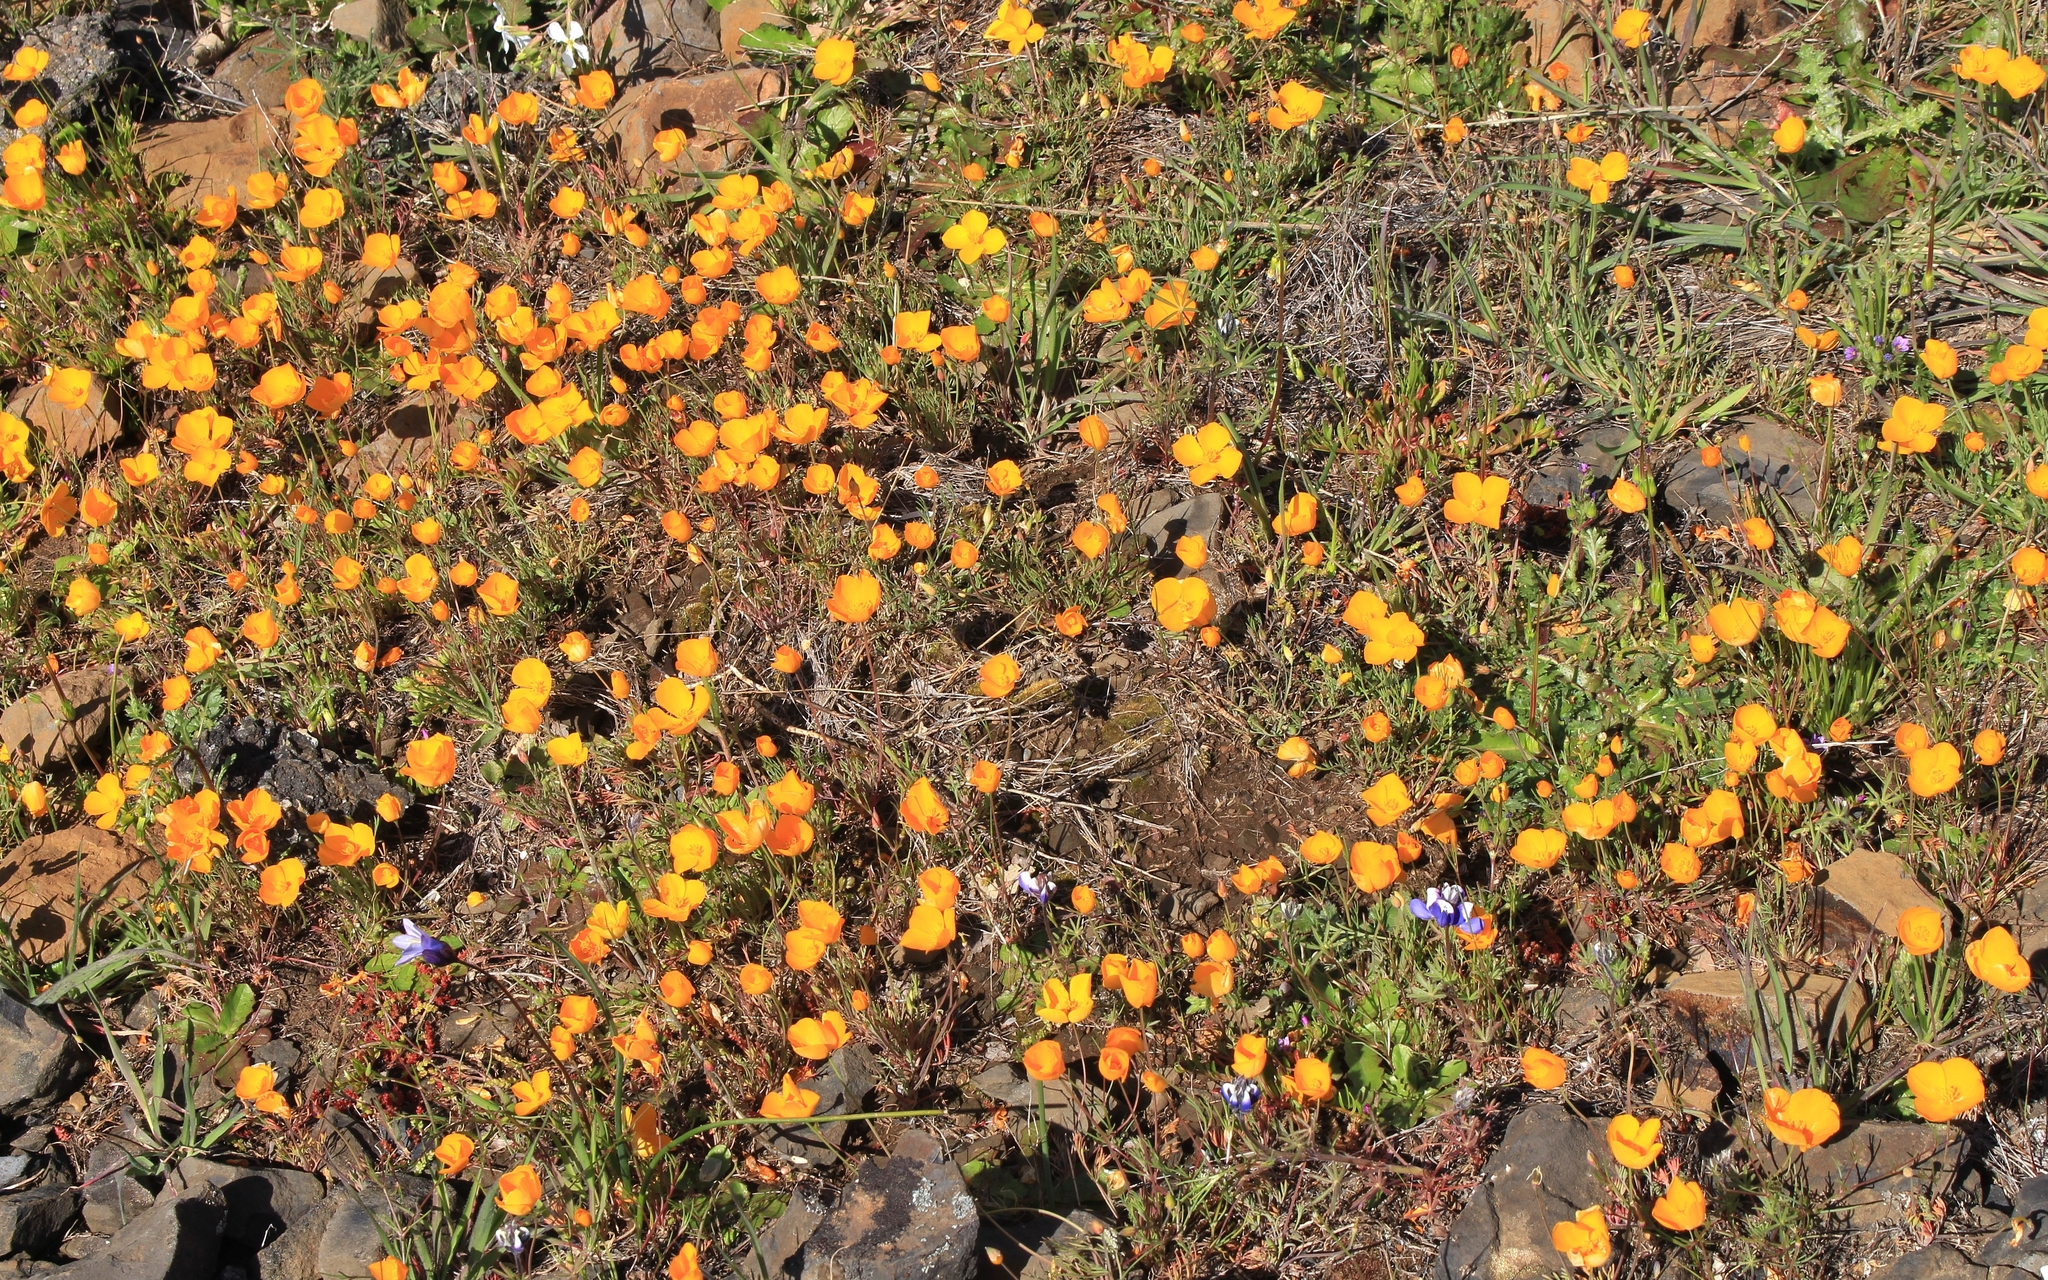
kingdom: Plantae
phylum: Tracheophyta
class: Magnoliopsida
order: Ranunculales
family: Papaveraceae
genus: Eschscholzia
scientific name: Eschscholzia lobbii
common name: Frying-pans
